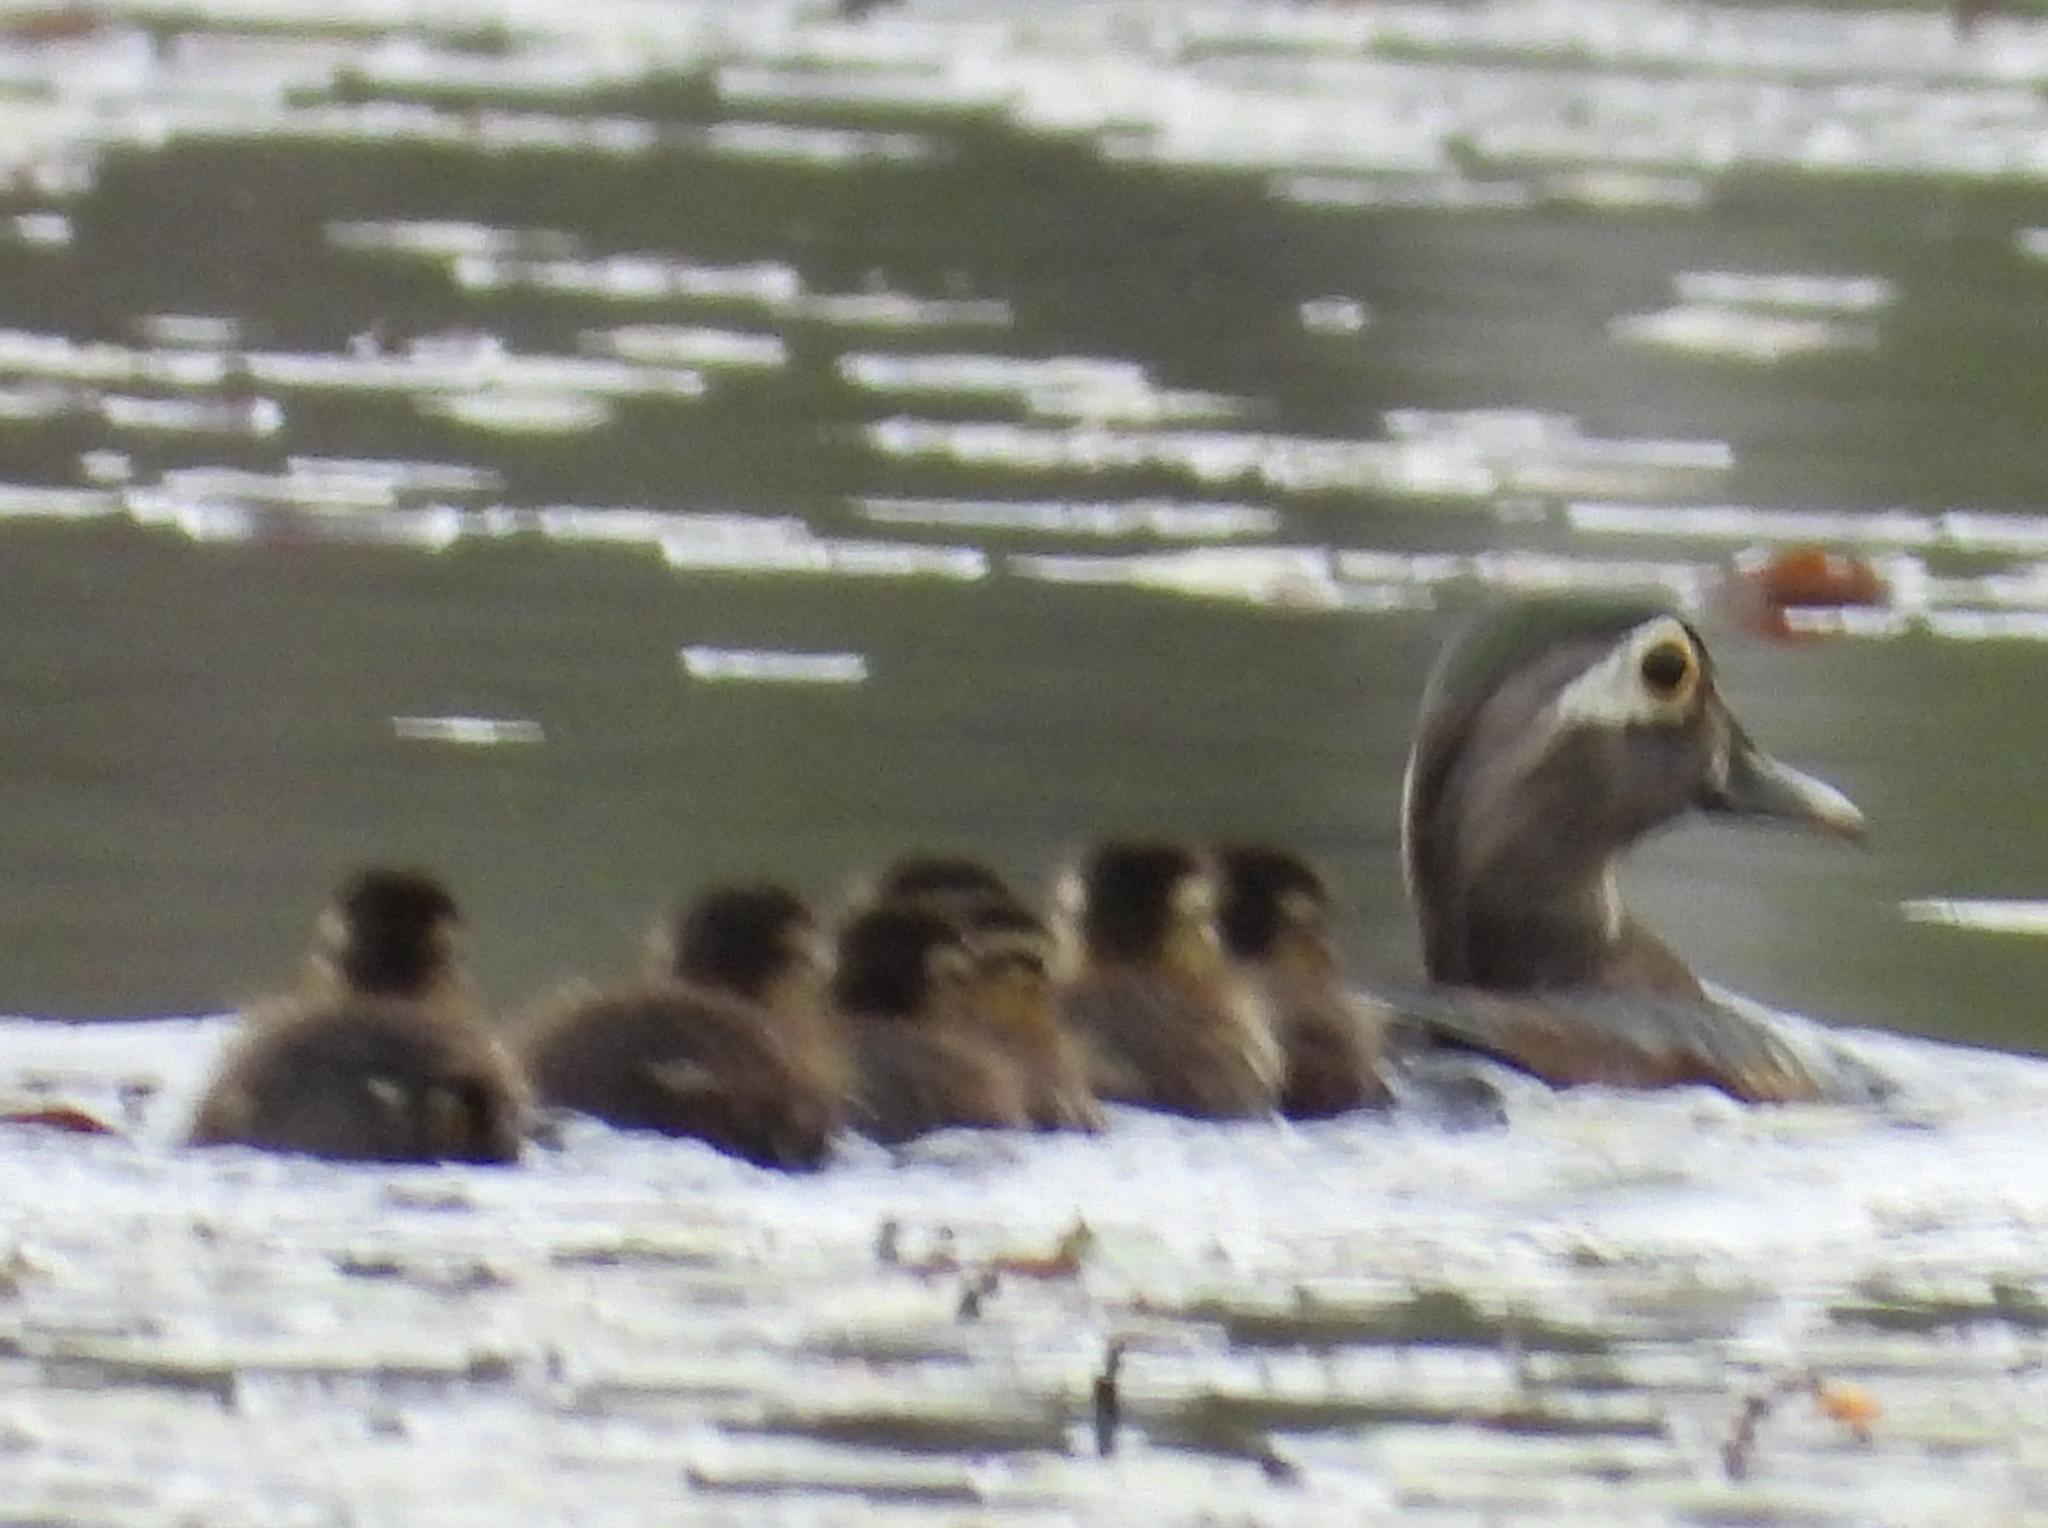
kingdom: Animalia
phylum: Chordata
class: Aves
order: Anseriformes
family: Anatidae
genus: Aix
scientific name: Aix sponsa
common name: Wood duck
